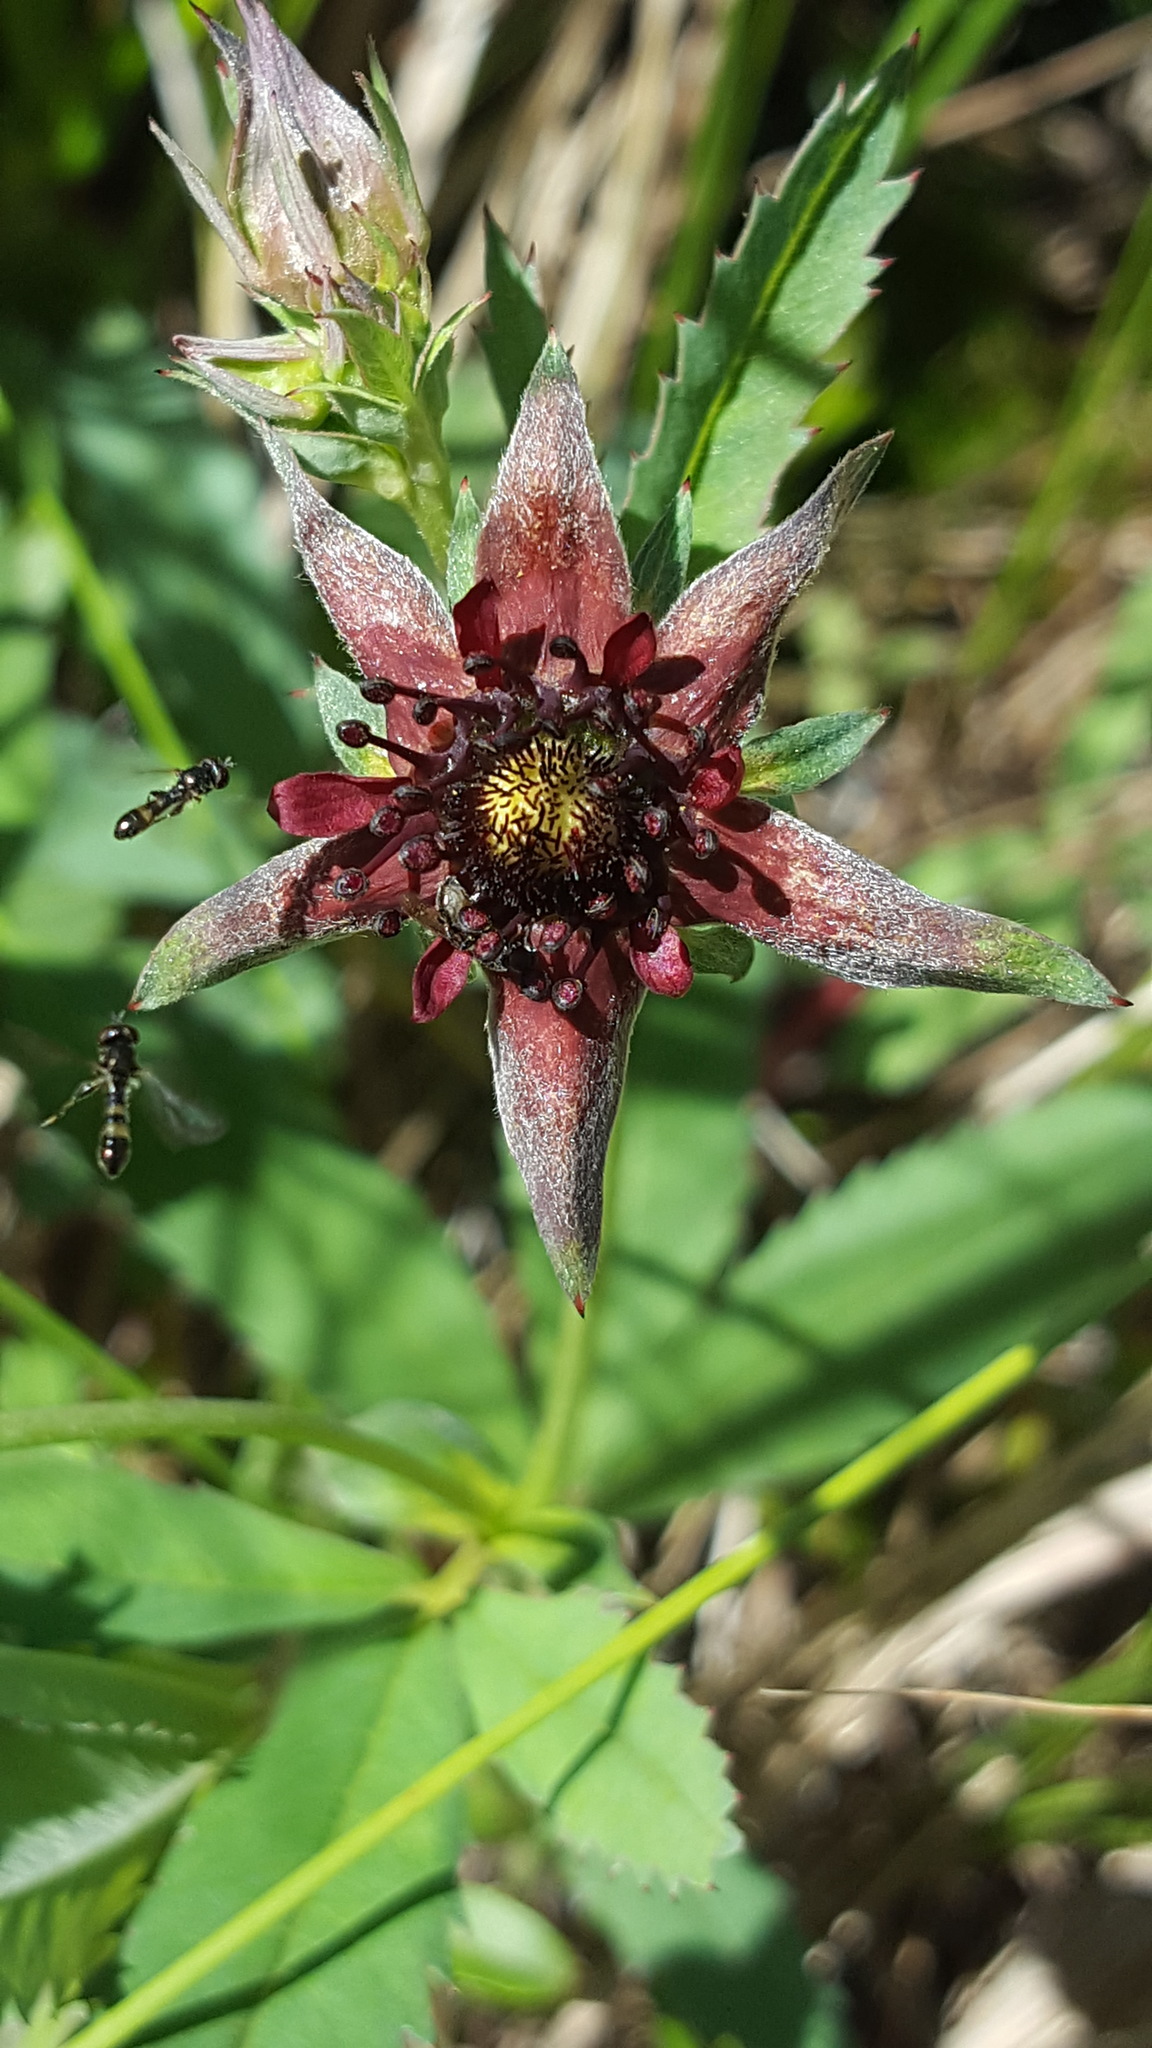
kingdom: Plantae
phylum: Tracheophyta
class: Magnoliopsida
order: Rosales
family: Rosaceae
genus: Comarum
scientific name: Comarum palustre
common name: Marsh cinquefoil
